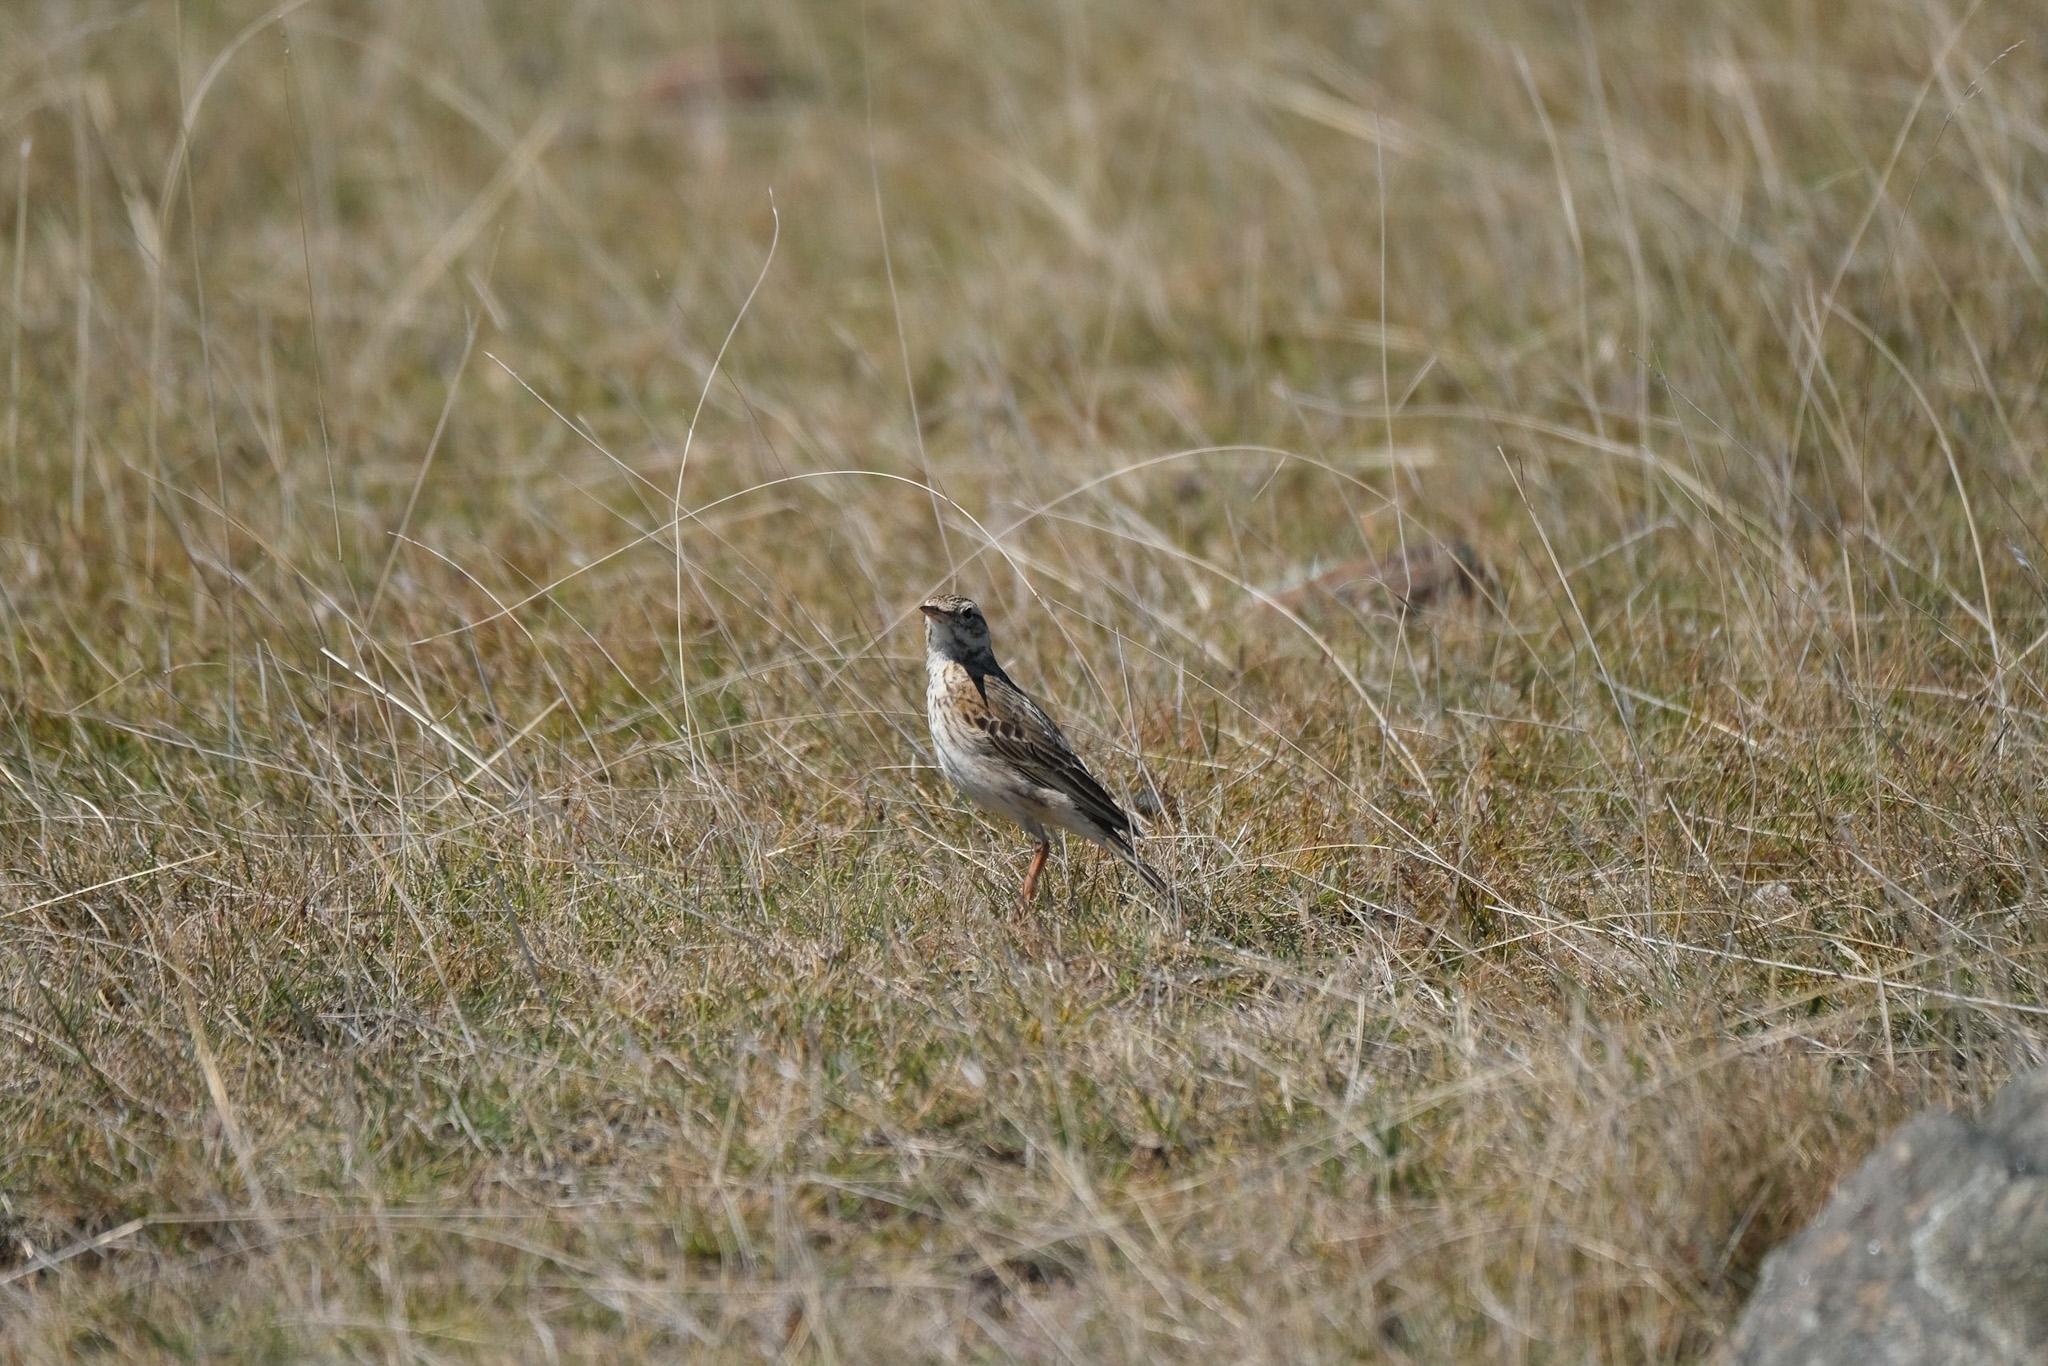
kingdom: Animalia
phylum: Chordata
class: Aves
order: Passeriformes
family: Motacillidae
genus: Anthus
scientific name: Anthus australis
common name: Australian pipit
